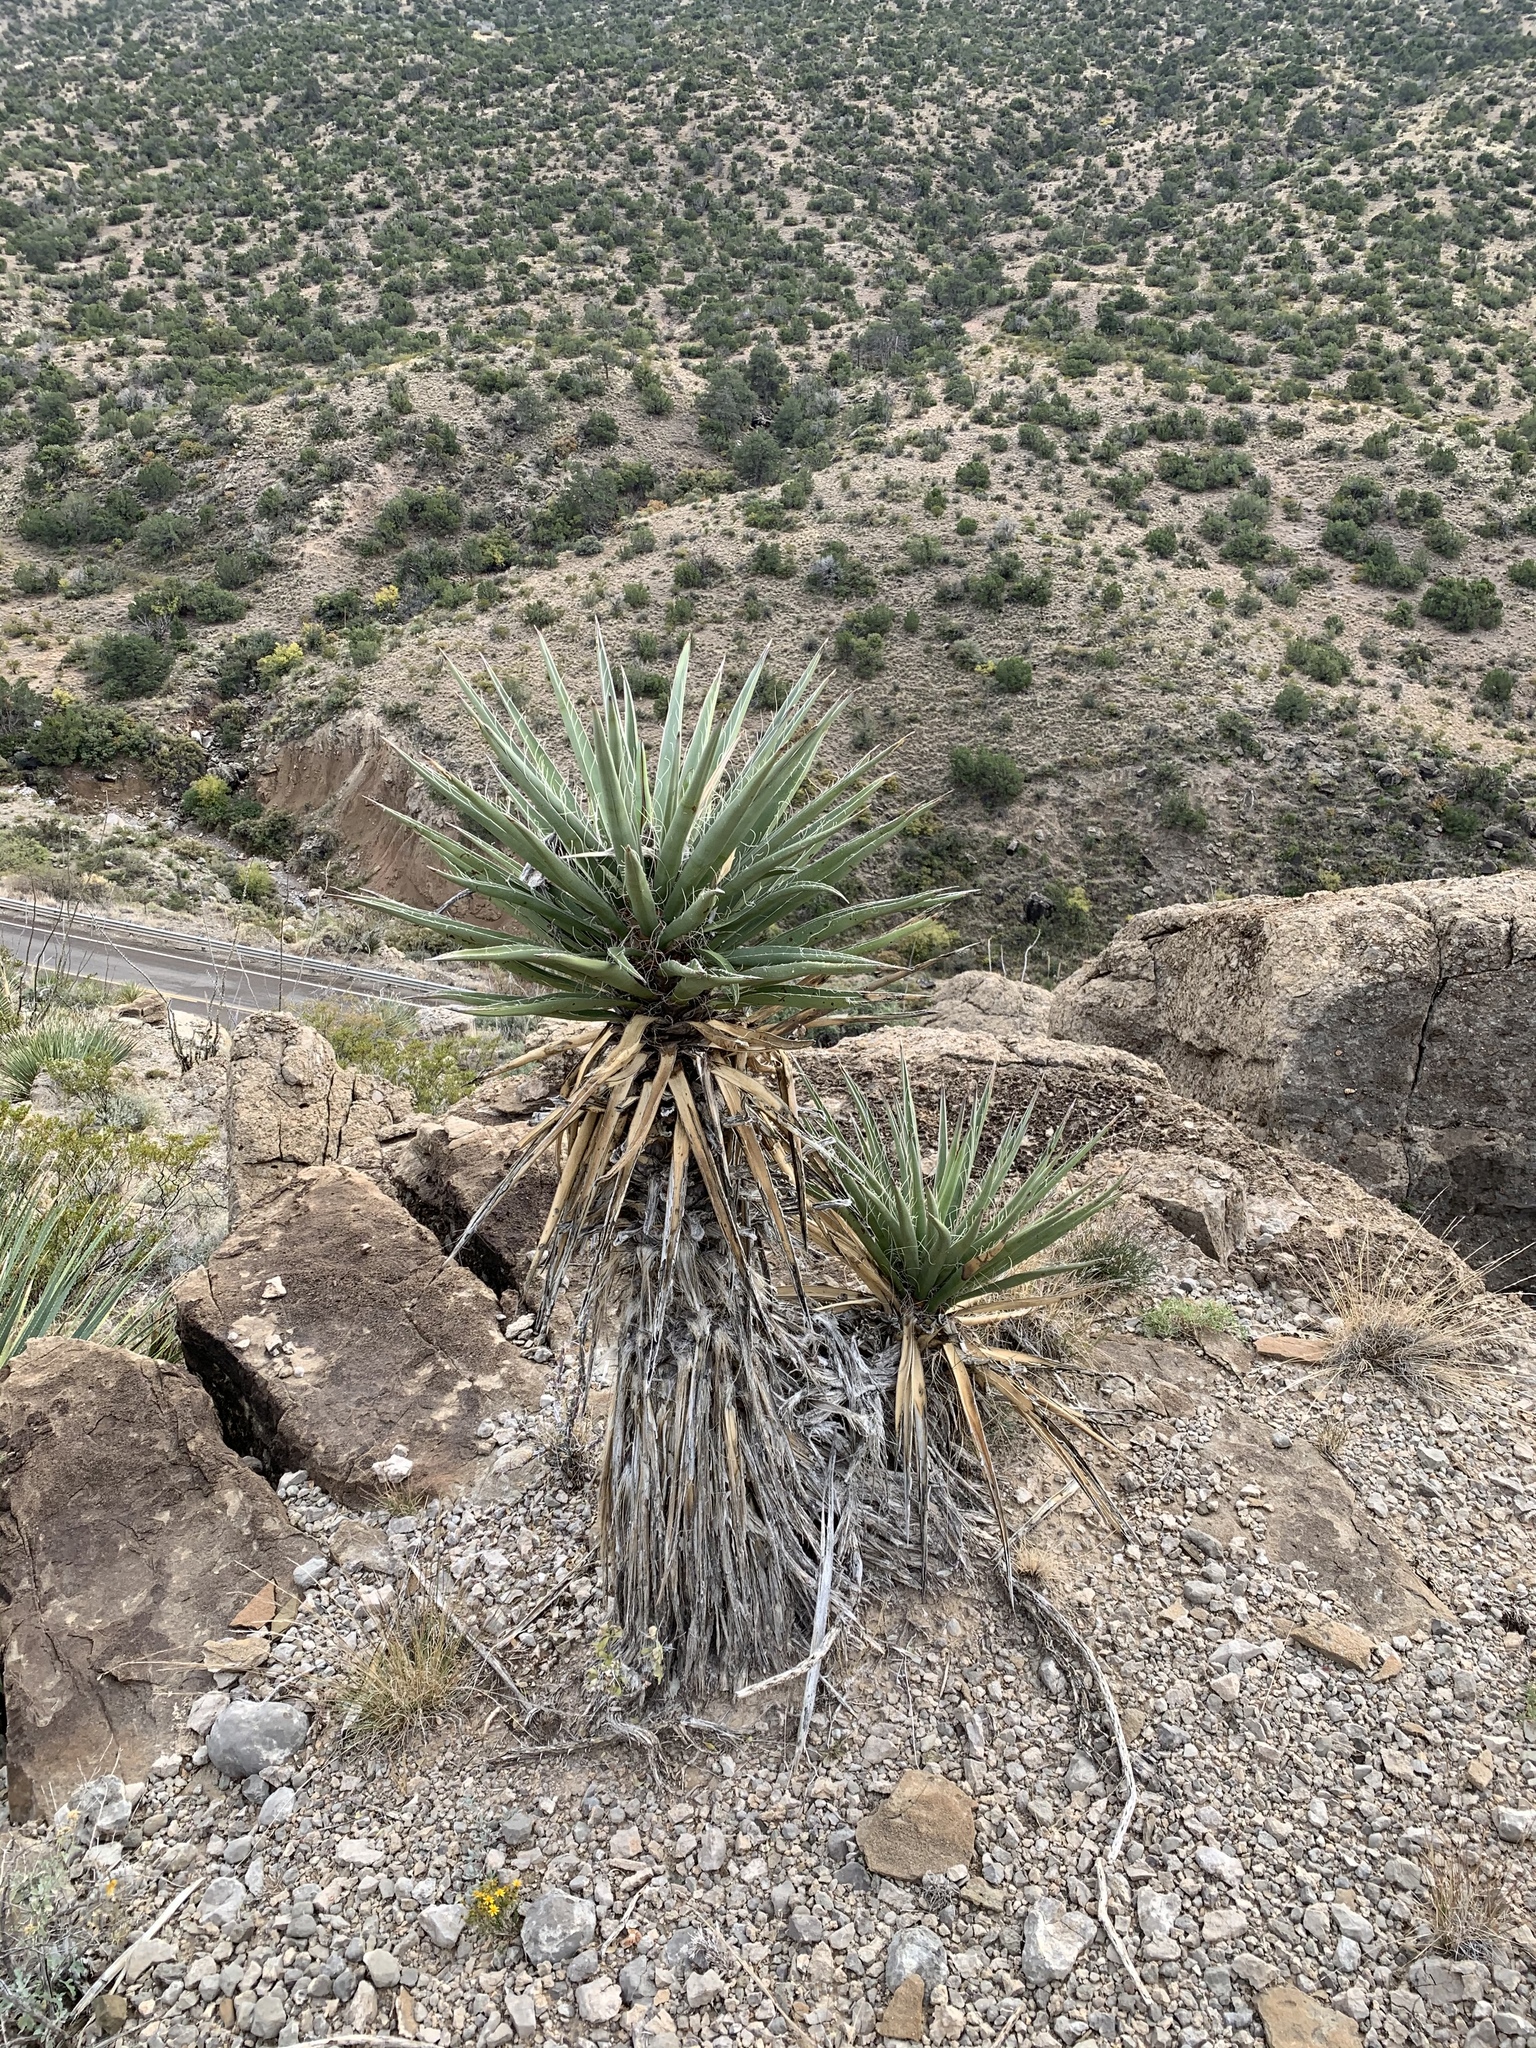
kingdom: Plantae
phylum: Tracheophyta
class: Liliopsida
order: Asparagales
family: Asparagaceae
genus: Yucca
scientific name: Yucca treculiana
